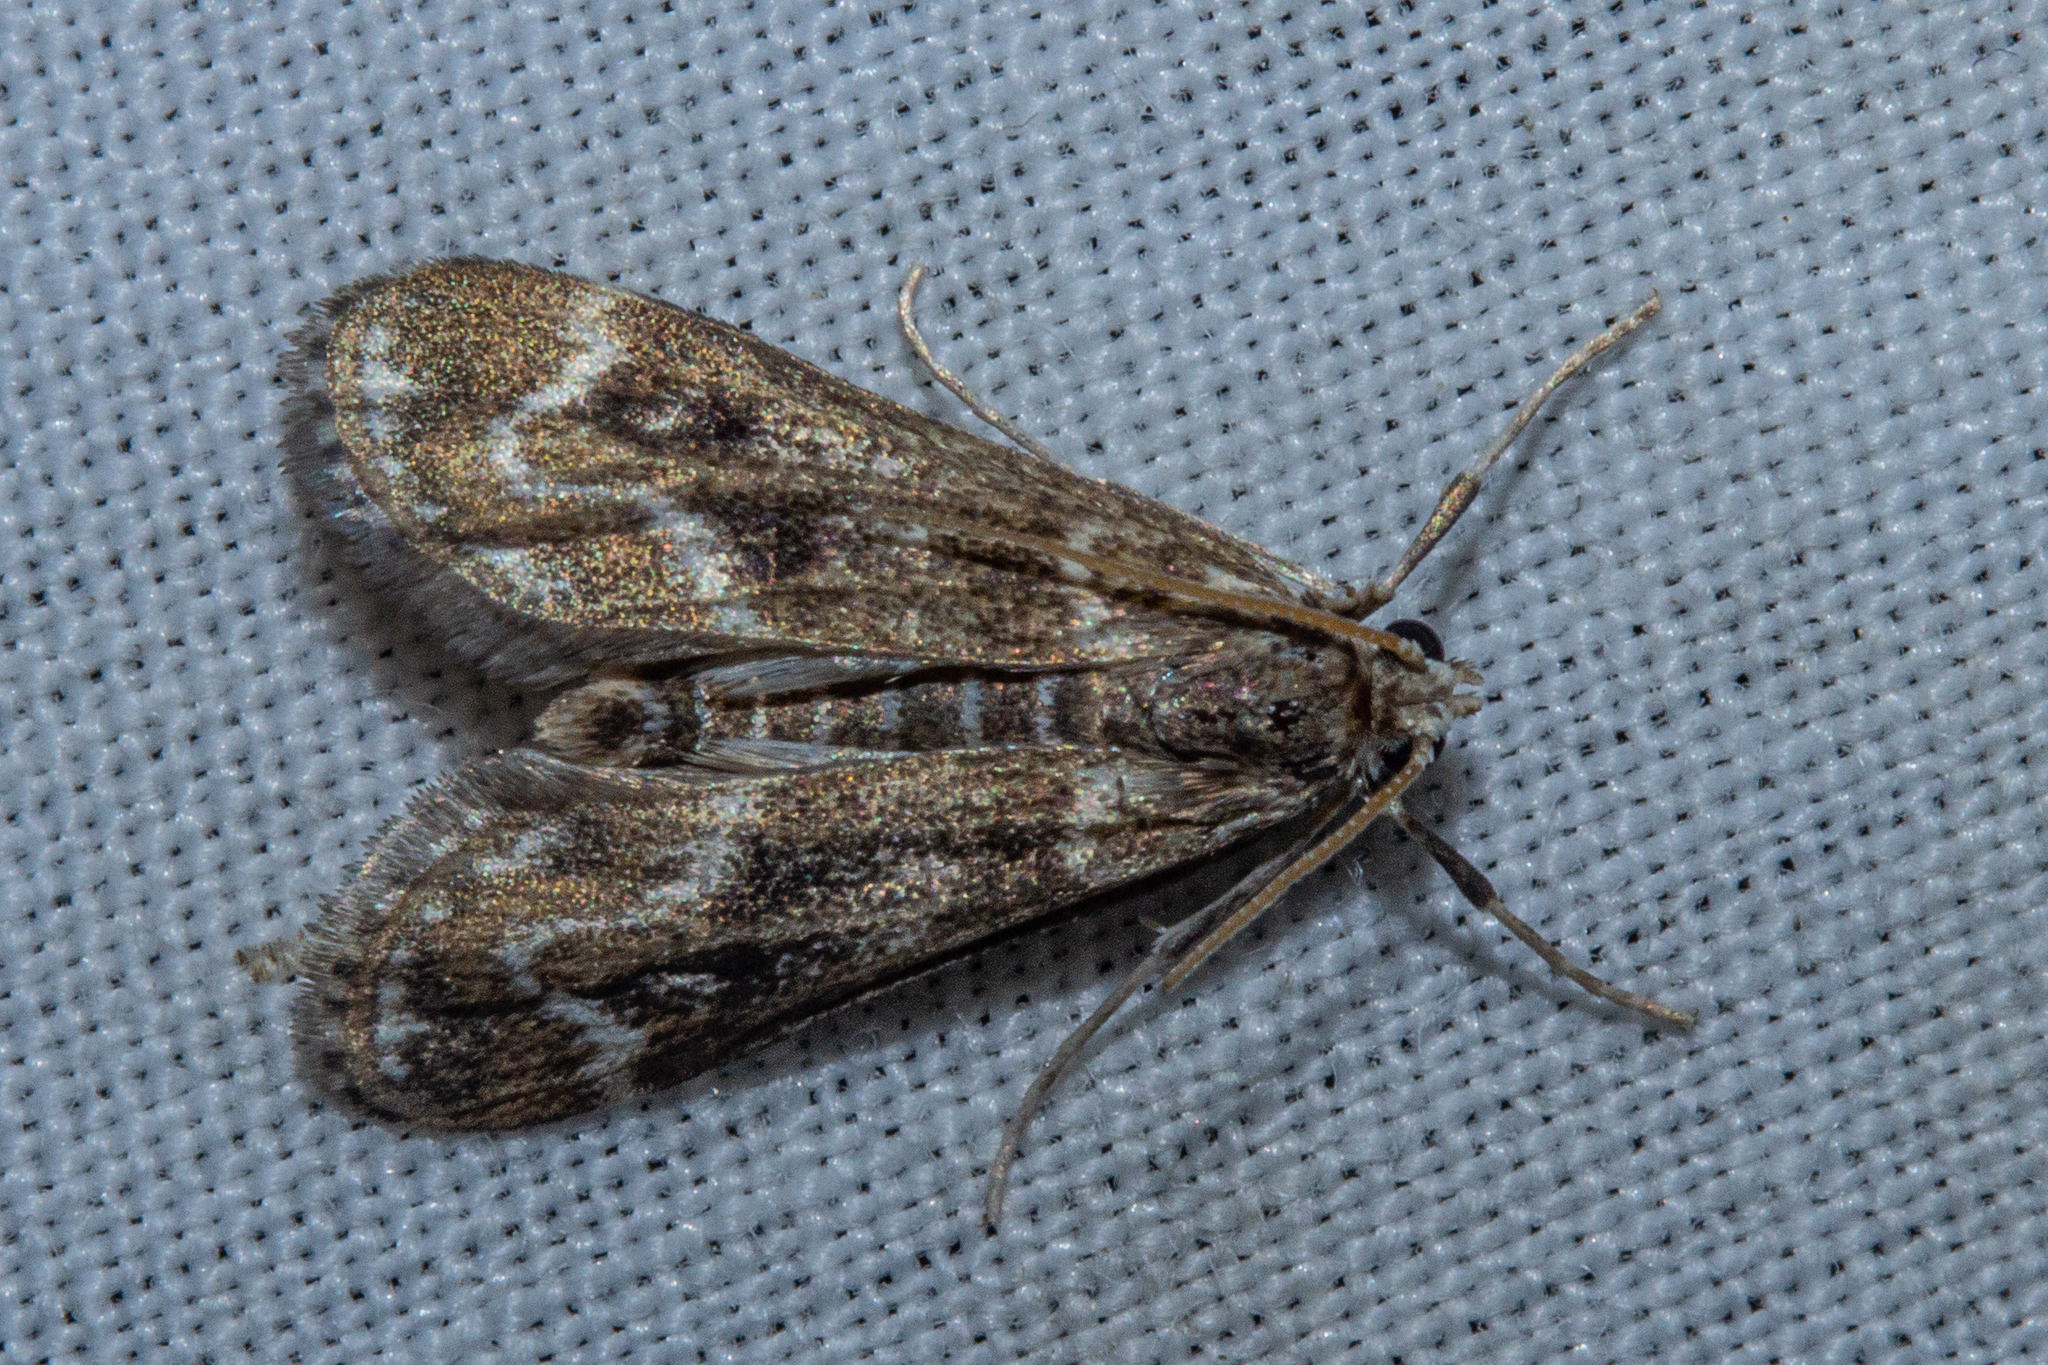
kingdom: Animalia
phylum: Arthropoda
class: Insecta
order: Lepidoptera
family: Crambidae
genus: Hygraula
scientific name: Hygraula nitens
